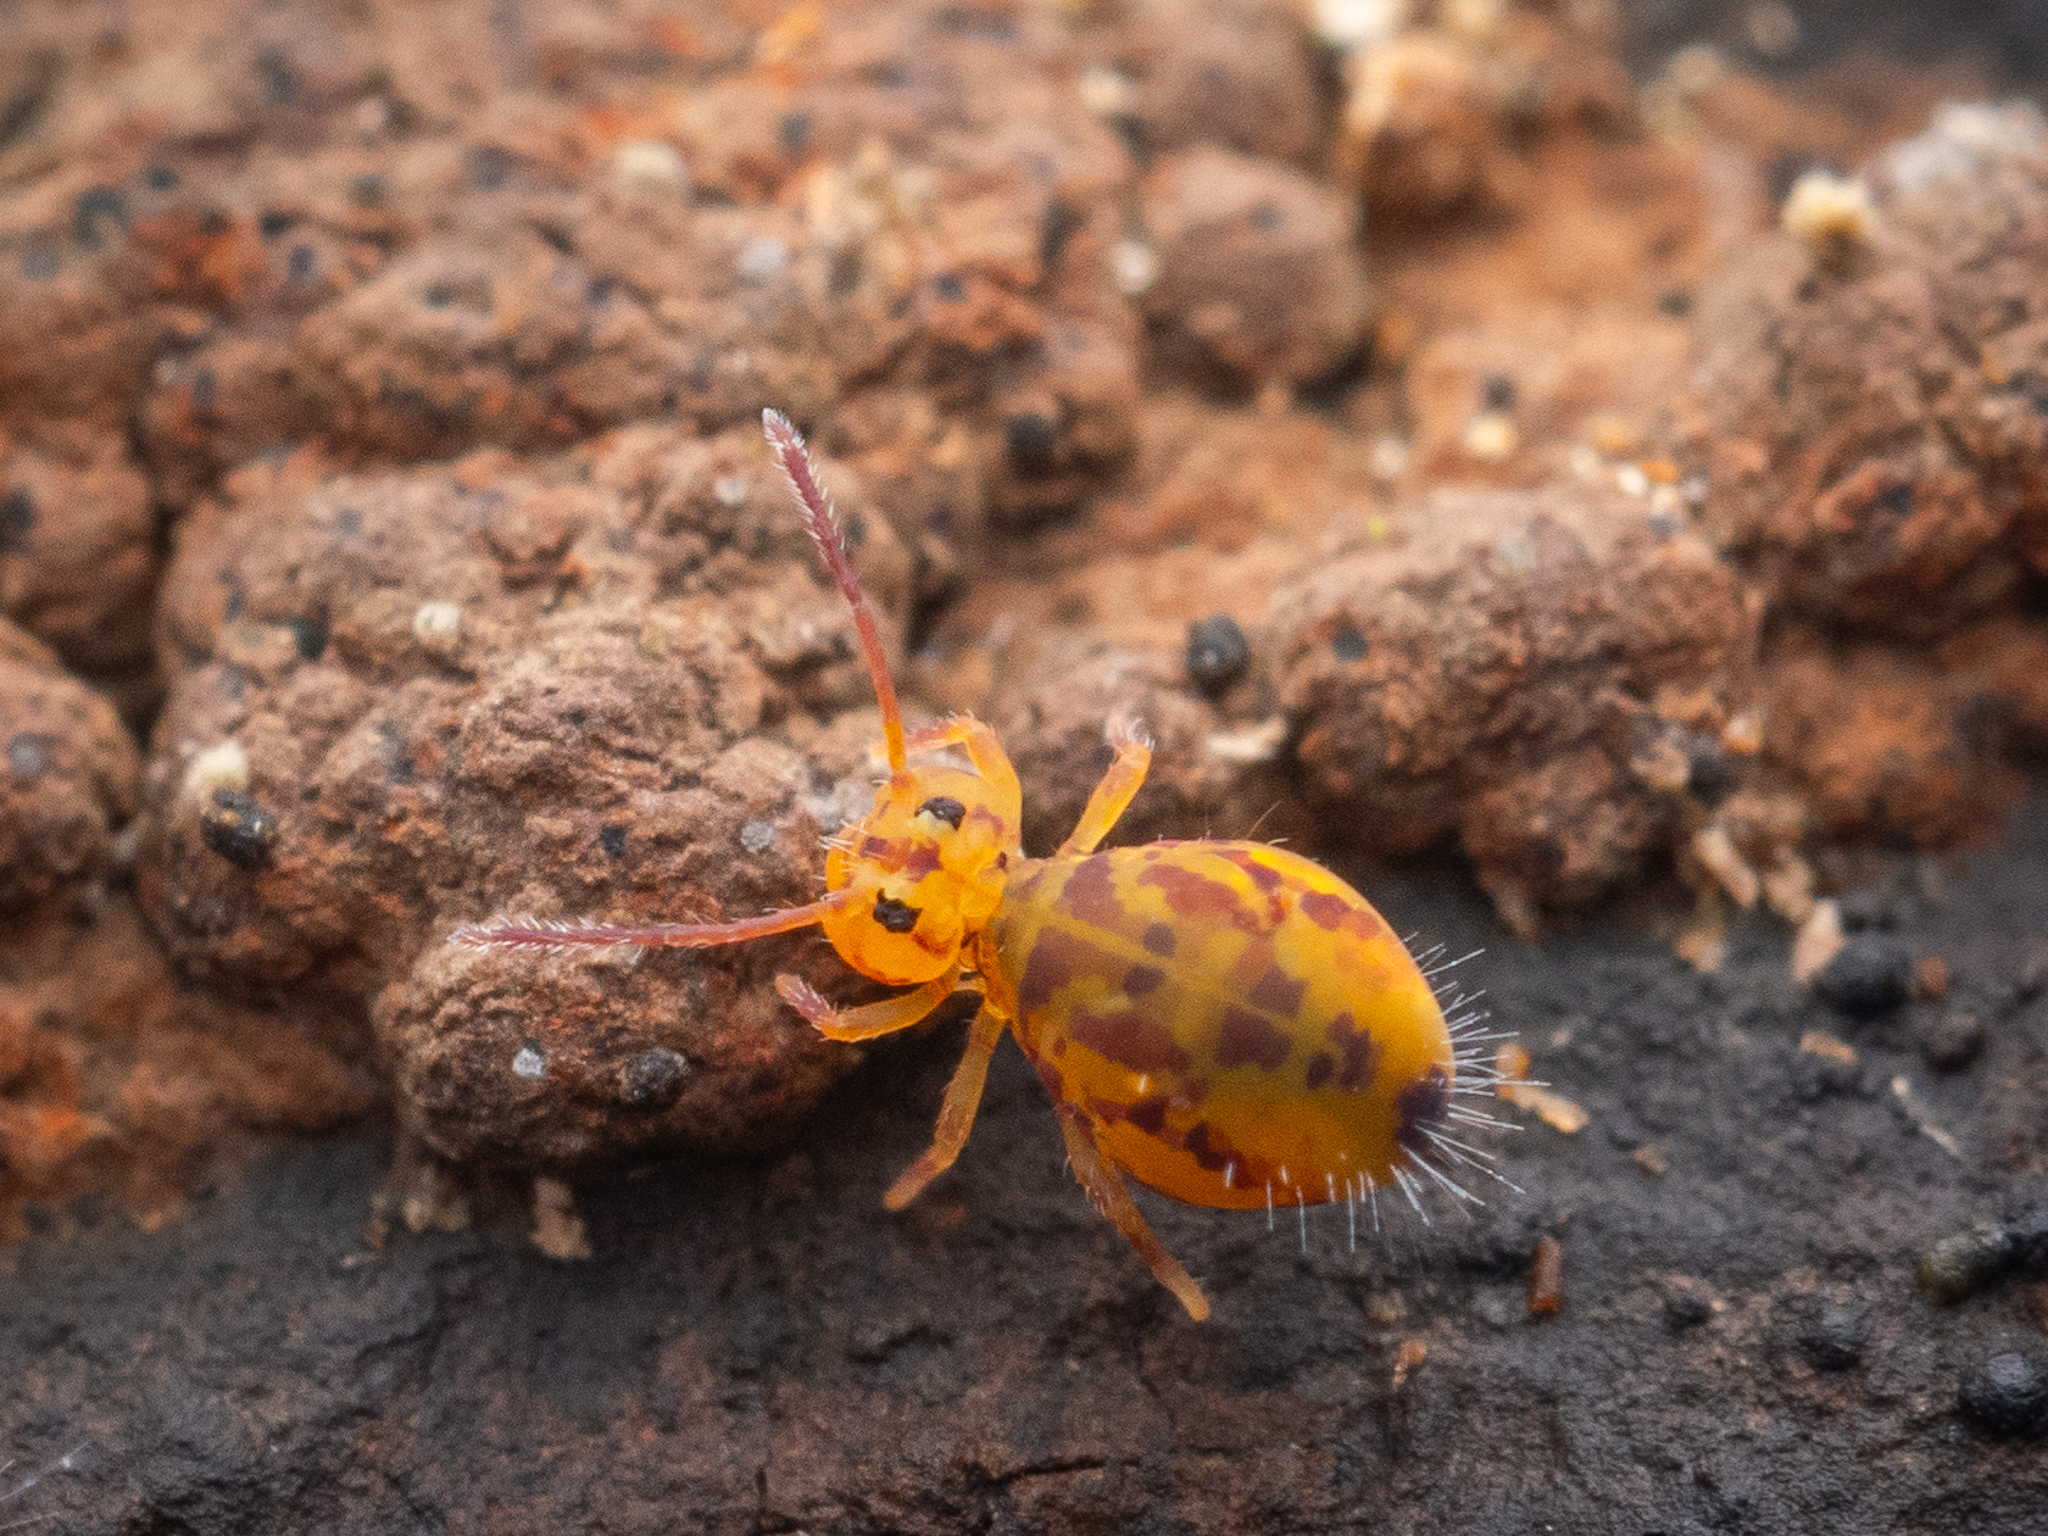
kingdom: Animalia
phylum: Arthropoda
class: Collembola
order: Symphypleona
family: Dicyrtomidae
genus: Dicyrtomina
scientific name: Dicyrtomina ornata
